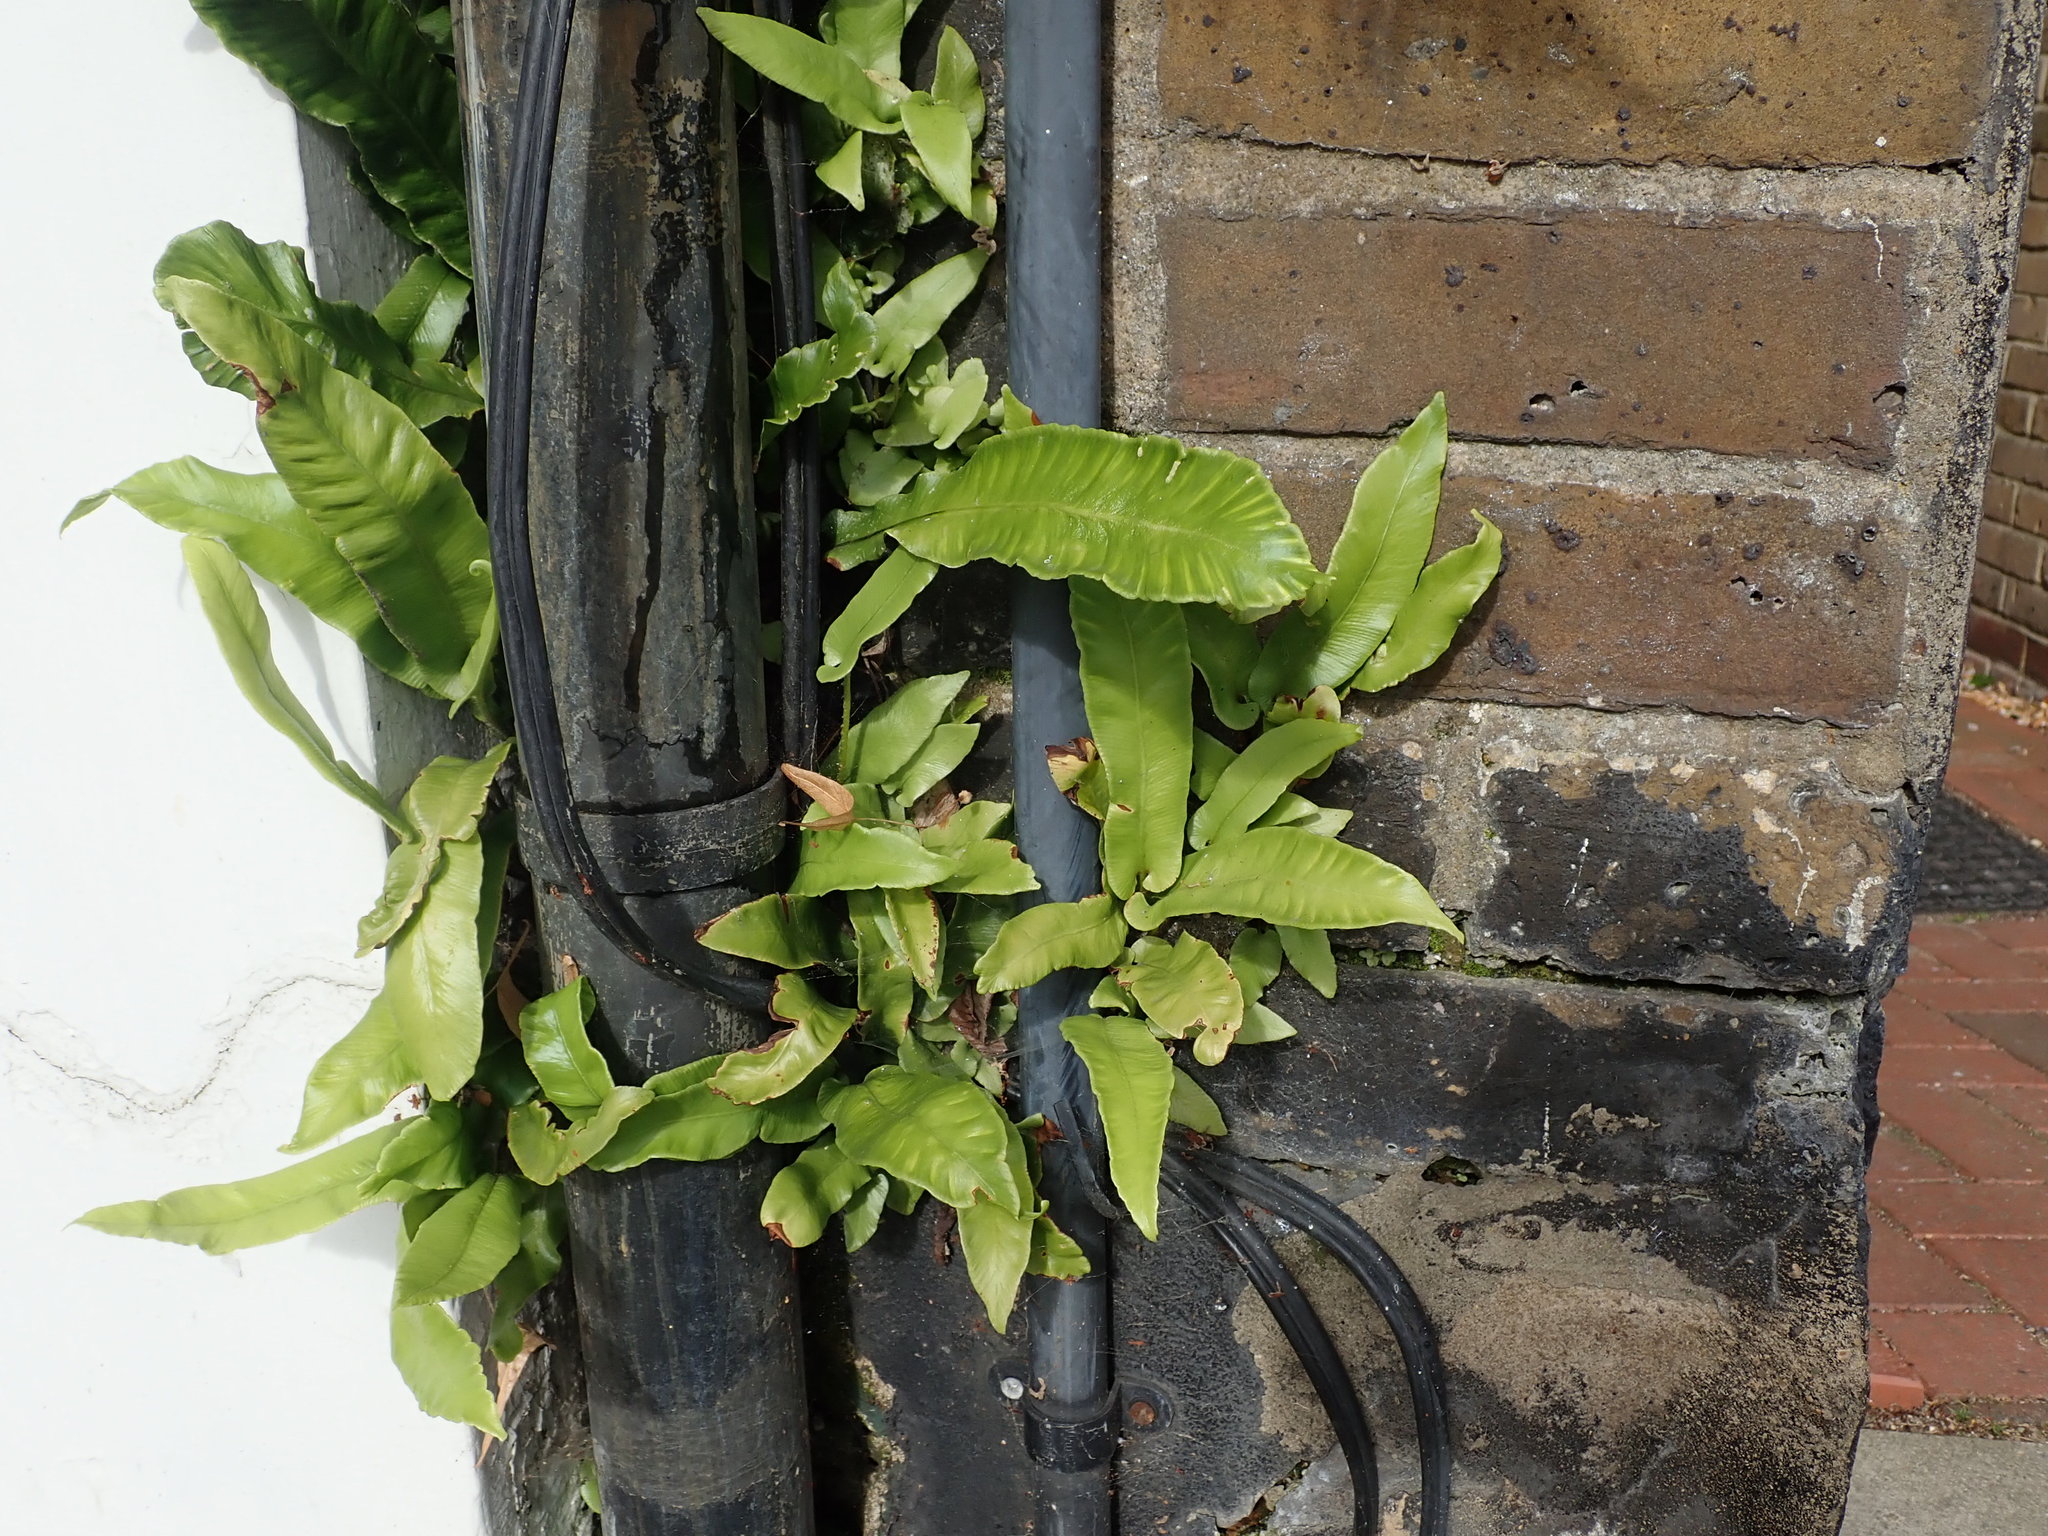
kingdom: Plantae
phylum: Tracheophyta
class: Polypodiopsida
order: Polypodiales
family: Aspleniaceae
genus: Asplenium
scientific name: Asplenium scolopendrium
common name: Hart's-tongue fern
